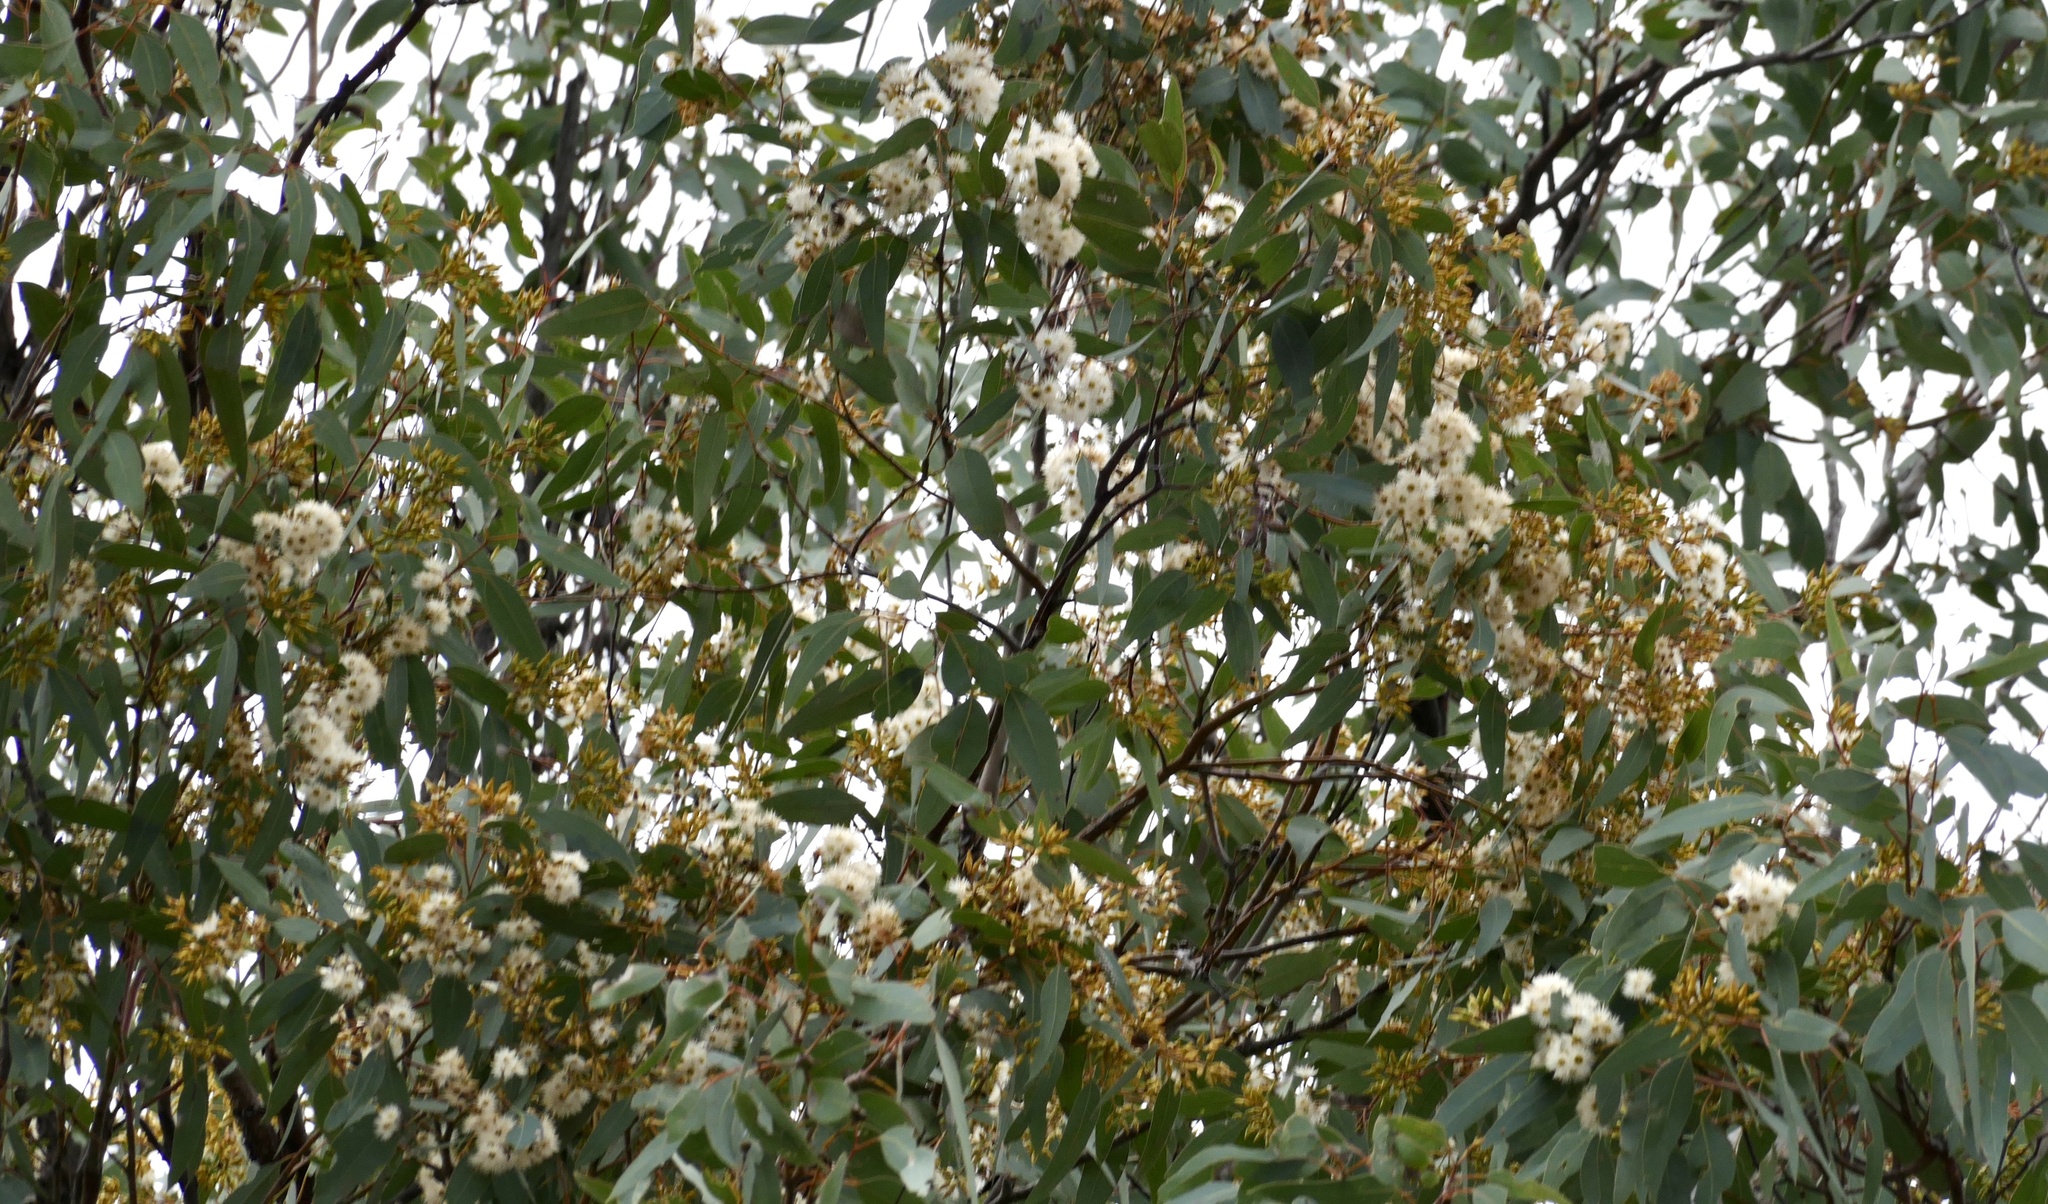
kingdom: Plantae
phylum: Tracheophyta
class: Magnoliopsida
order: Myrtales
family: Myrtaceae
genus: Eucalyptus
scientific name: Eucalyptus fibrosa
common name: Red ironbark
